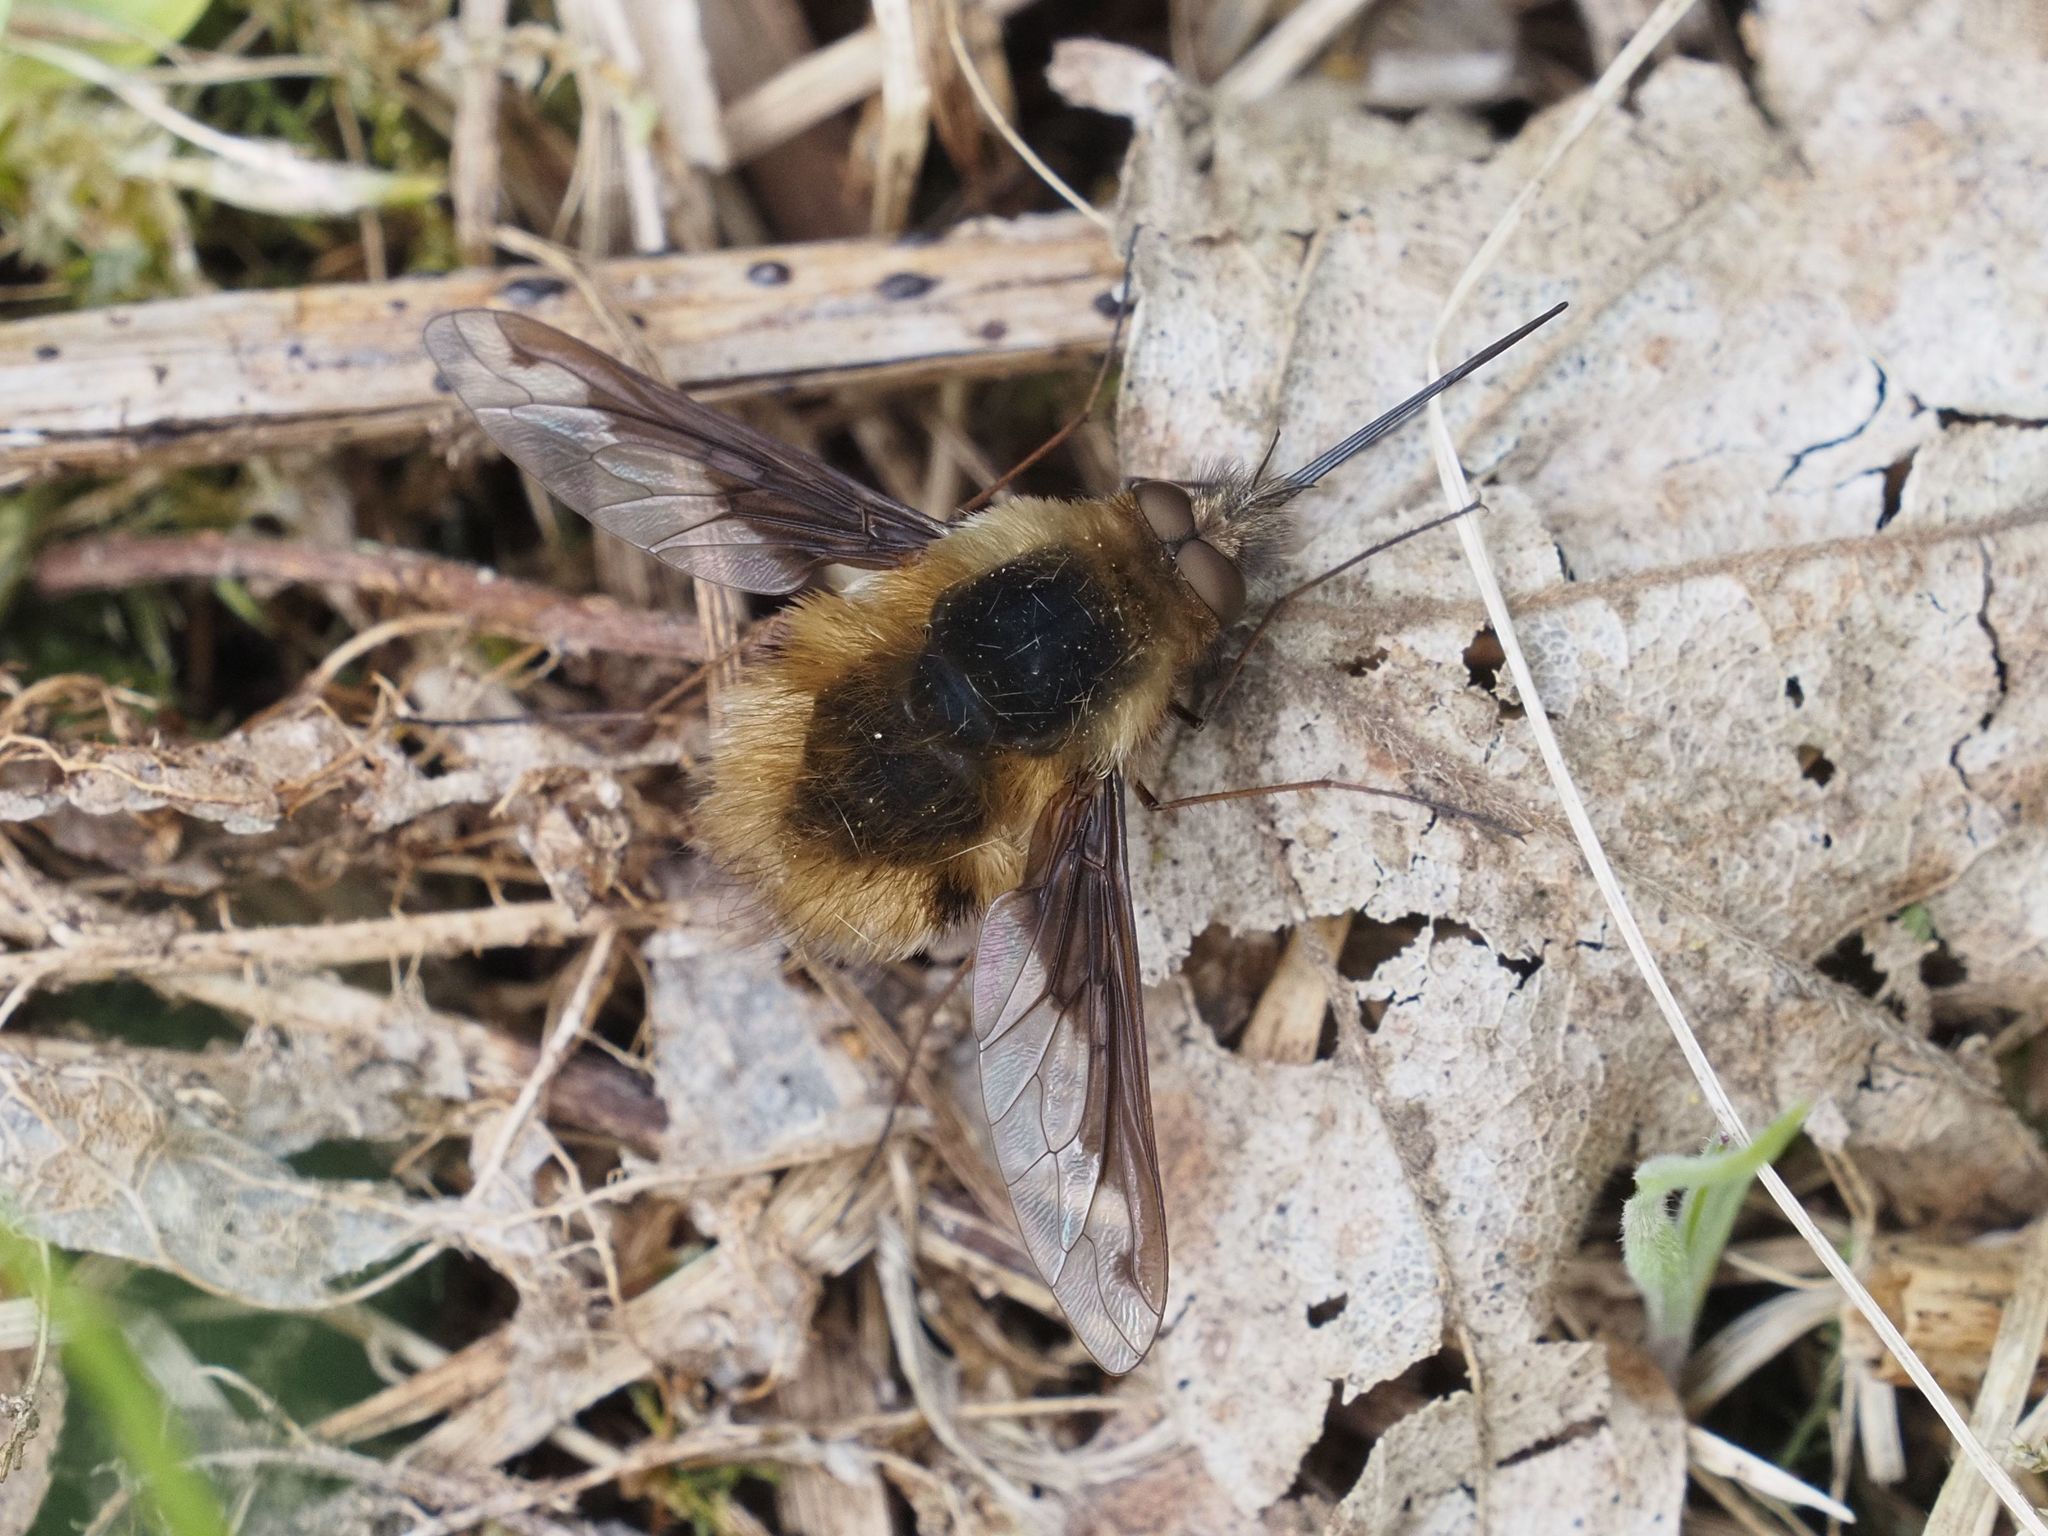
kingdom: Animalia
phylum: Arthropoda
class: Insecta
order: Diptera
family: Bombyliidae
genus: Bombylius
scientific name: Bombylius major
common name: Bee fly
